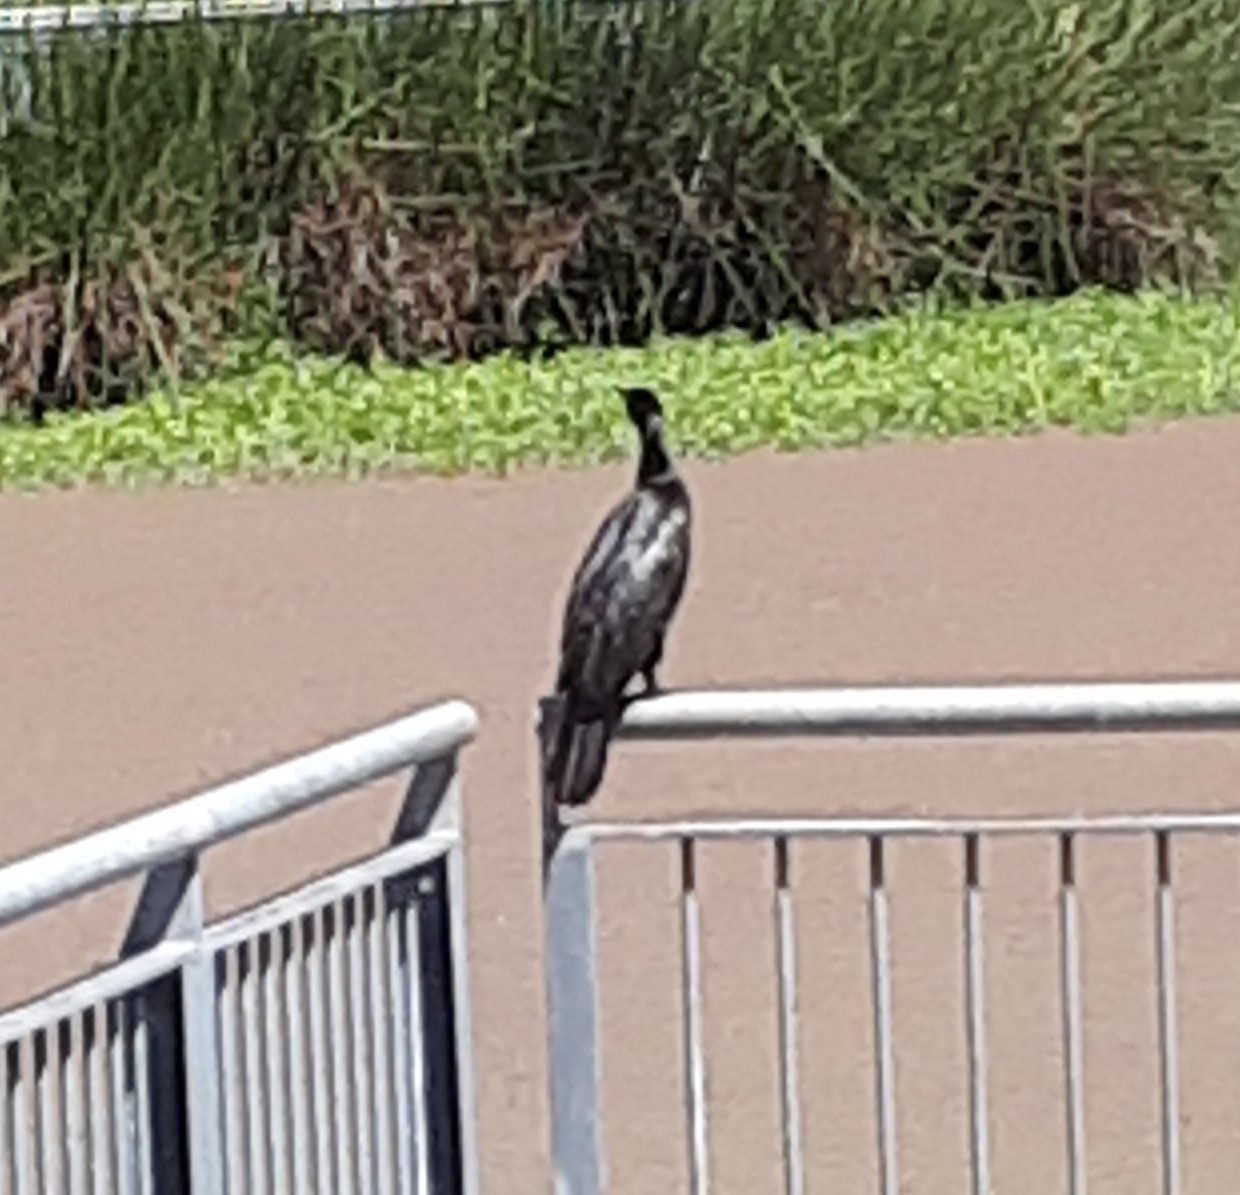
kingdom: Animalia
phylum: Chordata
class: Aves
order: Suliformes
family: Phalacrocoracidae
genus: Phalacrocorax
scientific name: Phalacrocorax sulcirostris
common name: Little black cormorant
